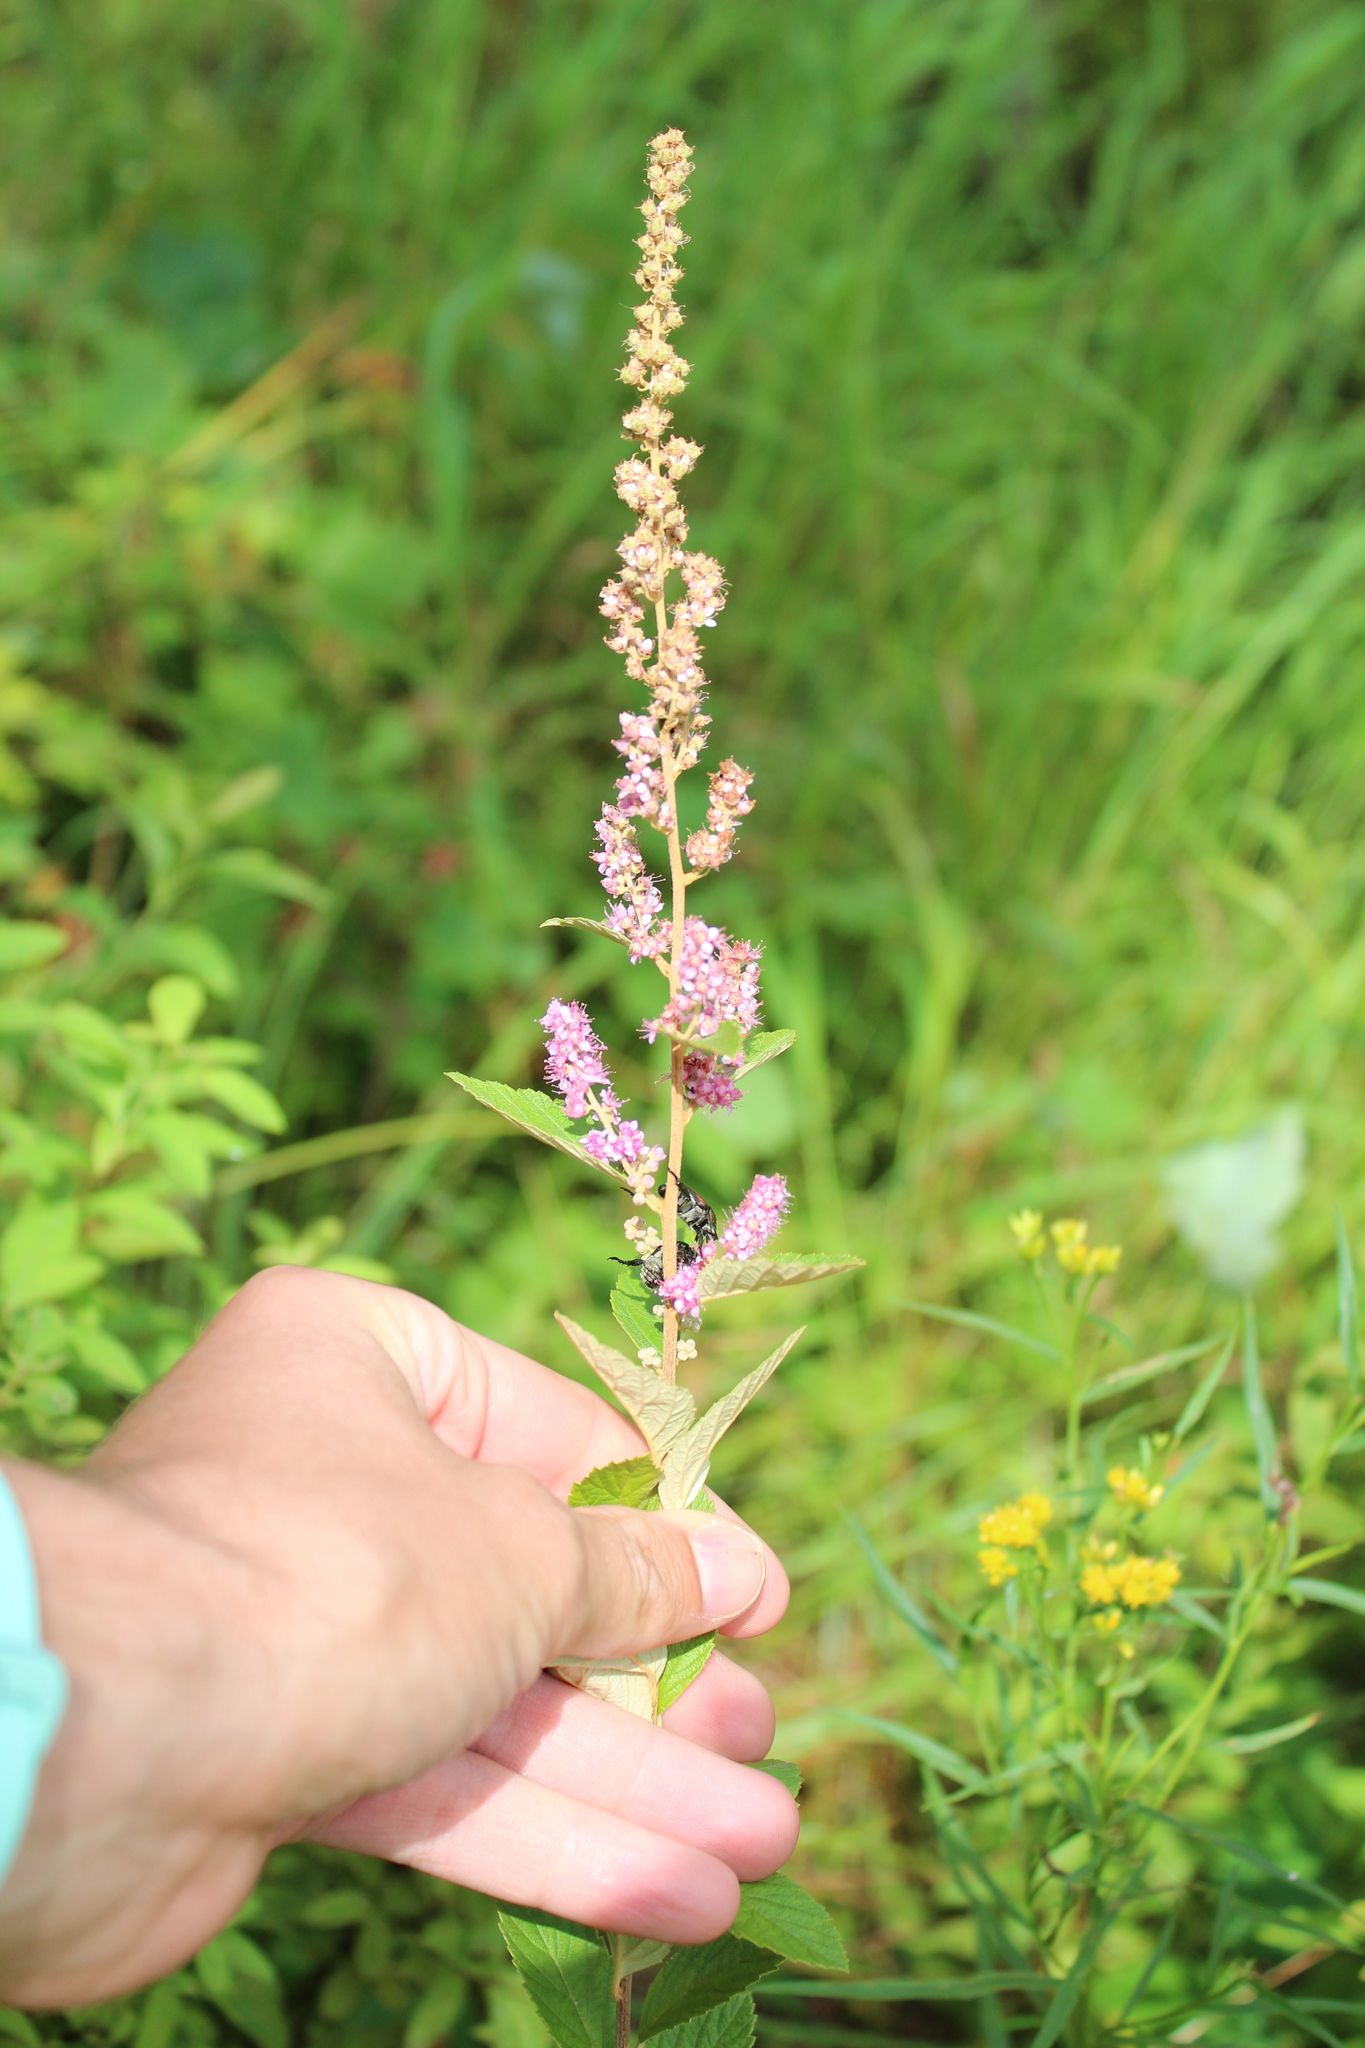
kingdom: Plantae
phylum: Tracheophyta
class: Magnoliopsida
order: Rosales
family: Rosaceae
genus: Spiraea
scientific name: Spiraea tomentosa
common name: Hardhack
